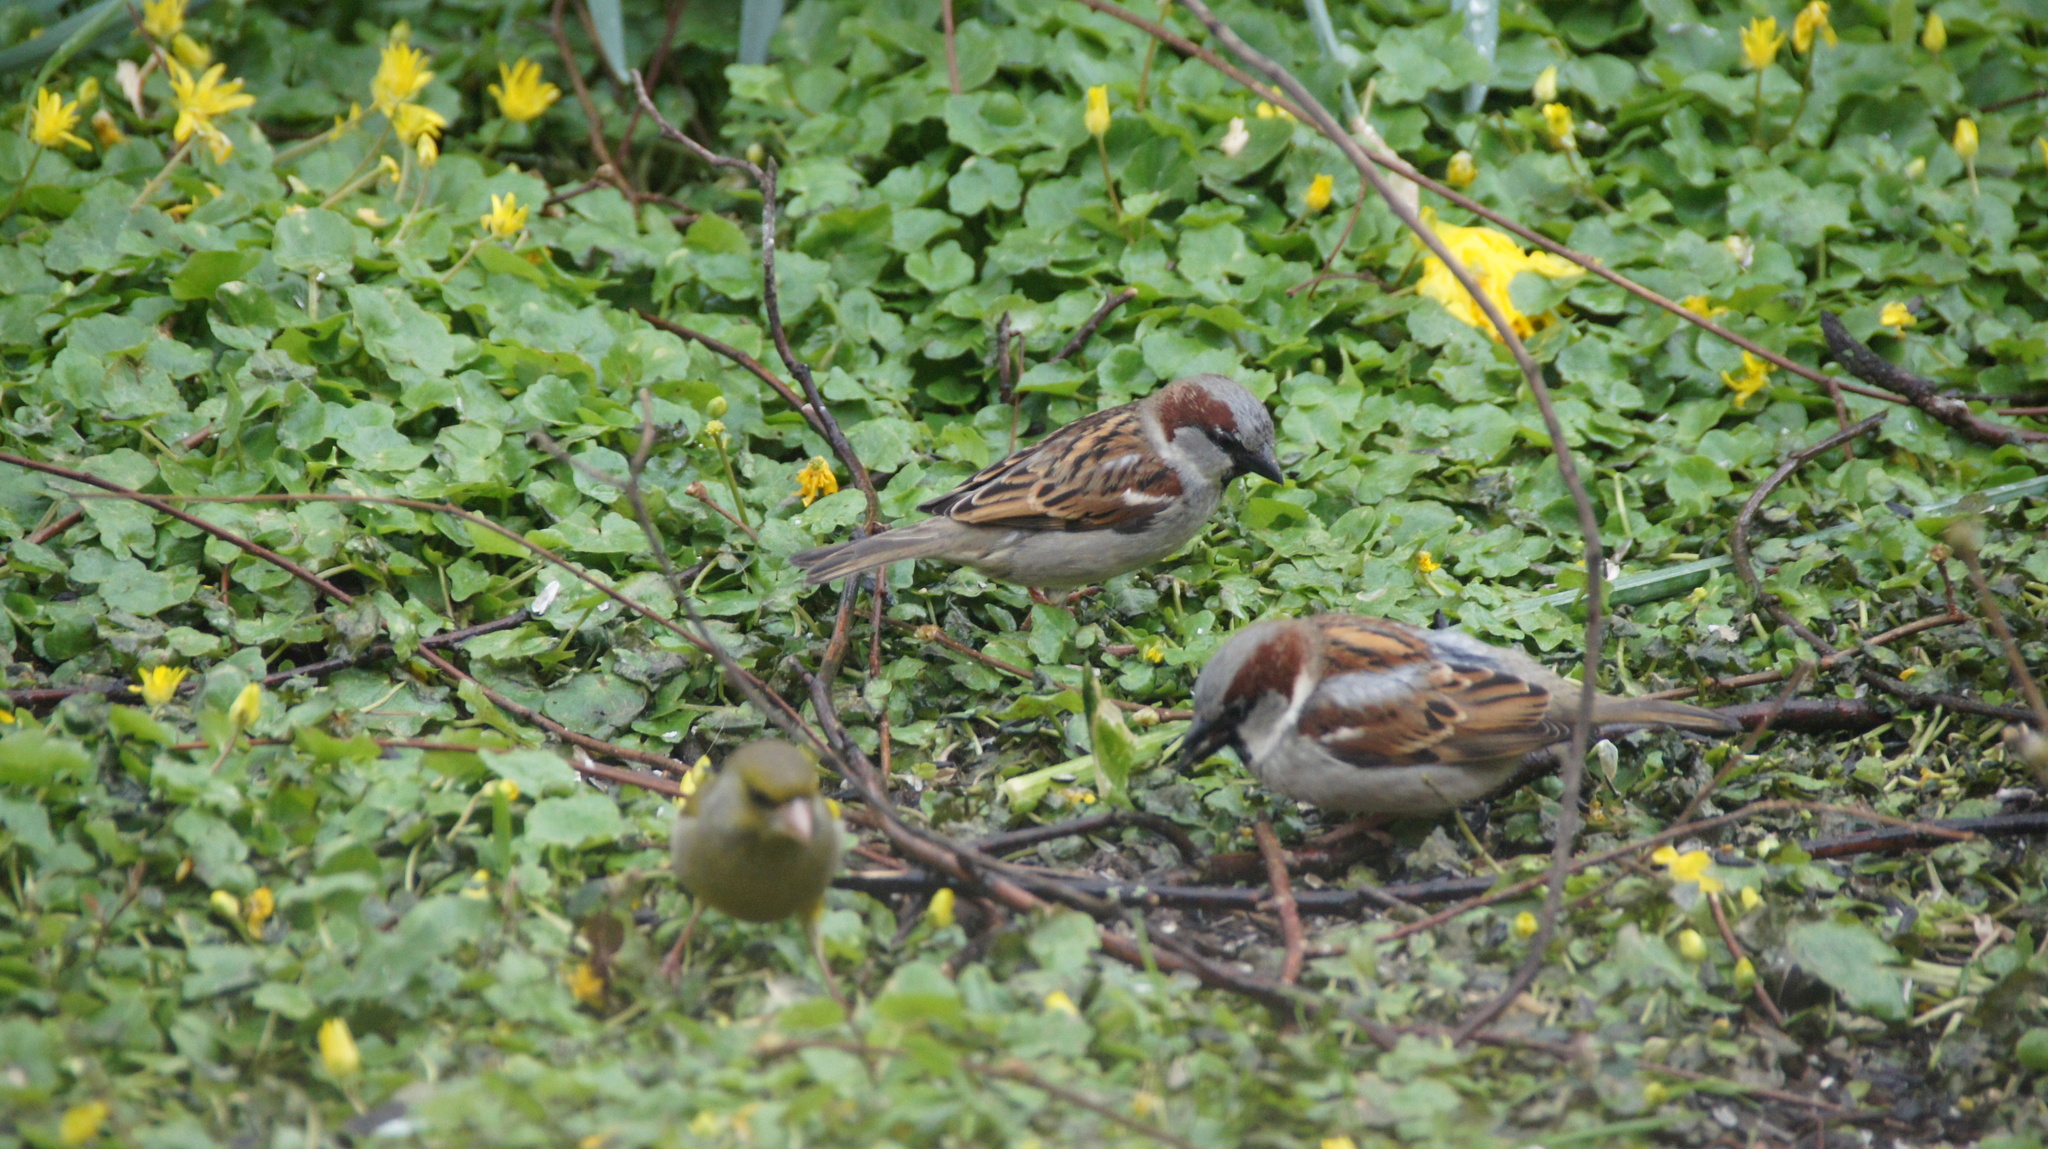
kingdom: Animalia
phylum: Chordata
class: Aves
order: Passeriformes
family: Passeridae
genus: Passer
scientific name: Passer domesticus
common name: House sparrow
